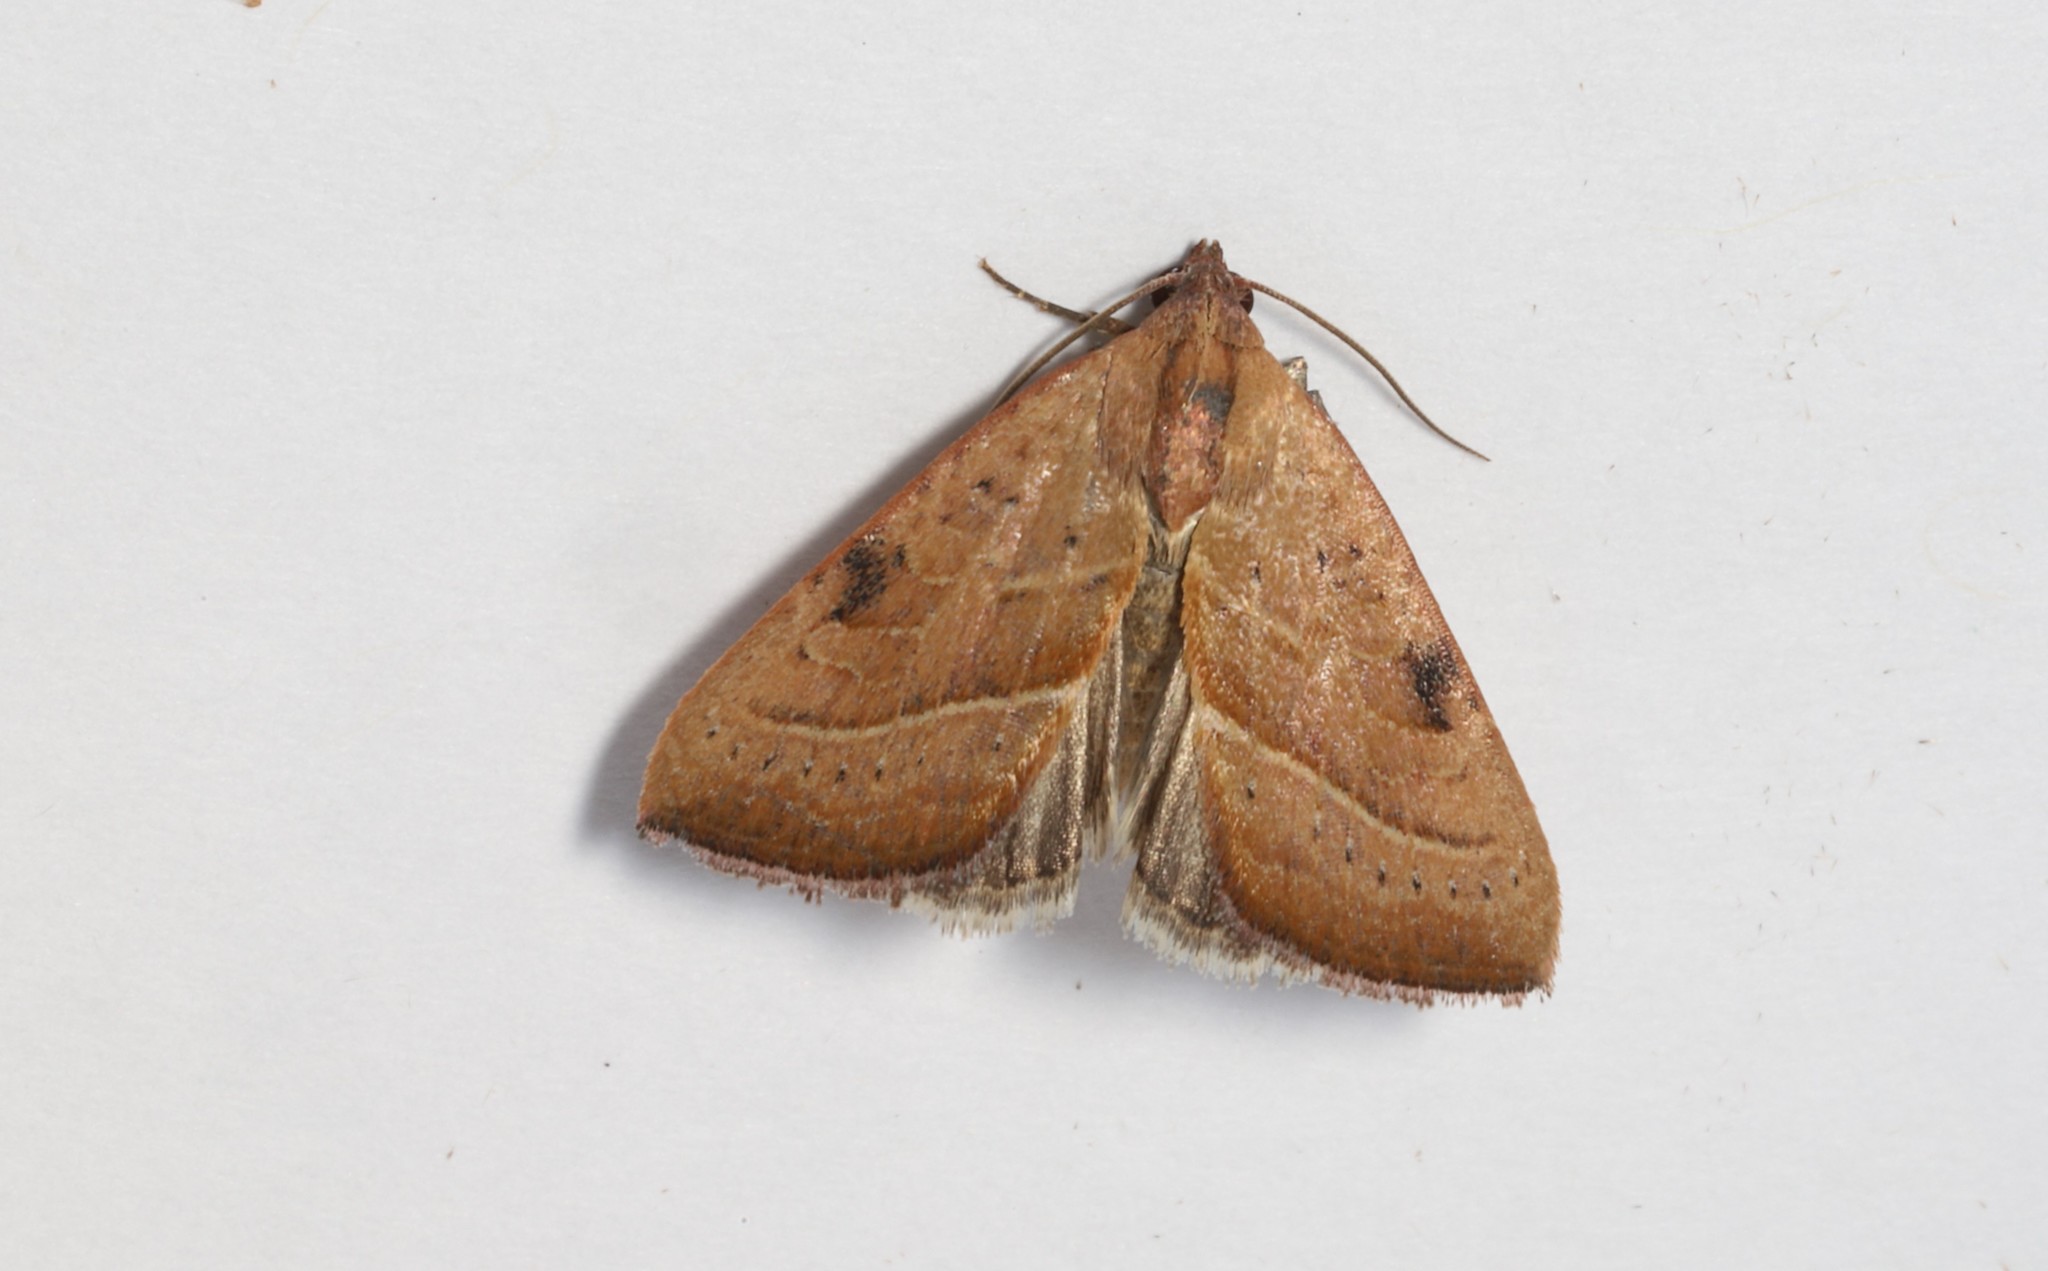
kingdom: Animalia
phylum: Arthropoda
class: Insecta
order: Lepidoptera
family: Noctuidae
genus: Galgula
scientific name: Galgula partita
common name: Wedgeling
